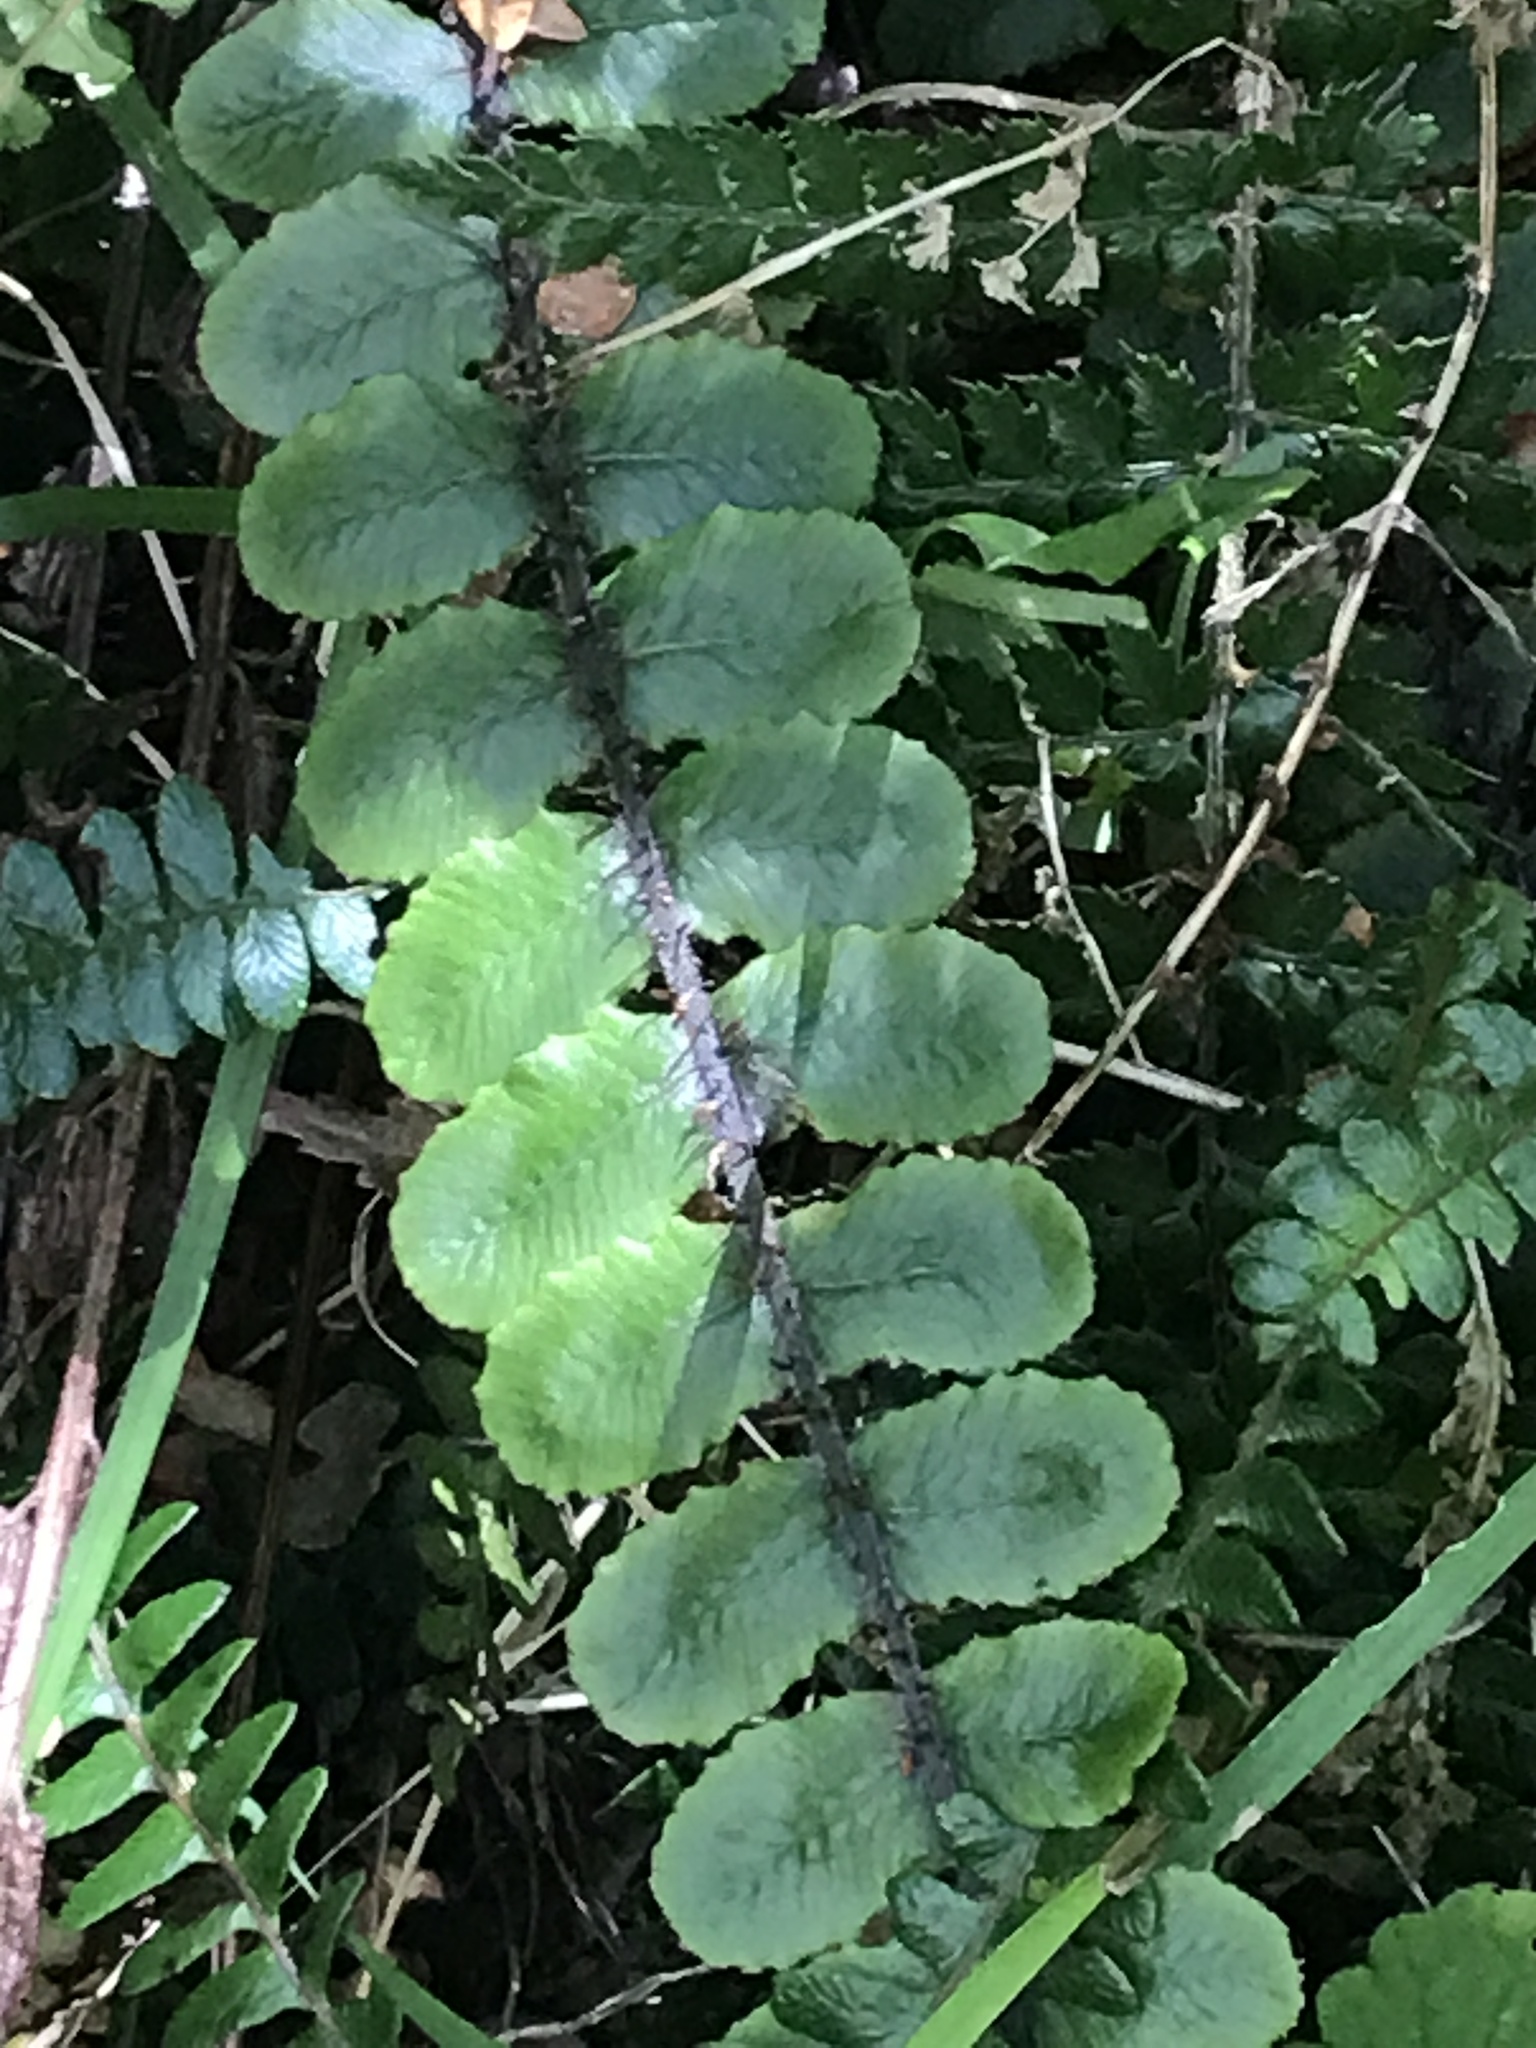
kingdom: Plantae
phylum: Tracheophyta
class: Polypodiopsida
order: Polypodiales
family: Blechnaceae
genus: Cranfillia
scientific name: Cranfillia fluviatilis
